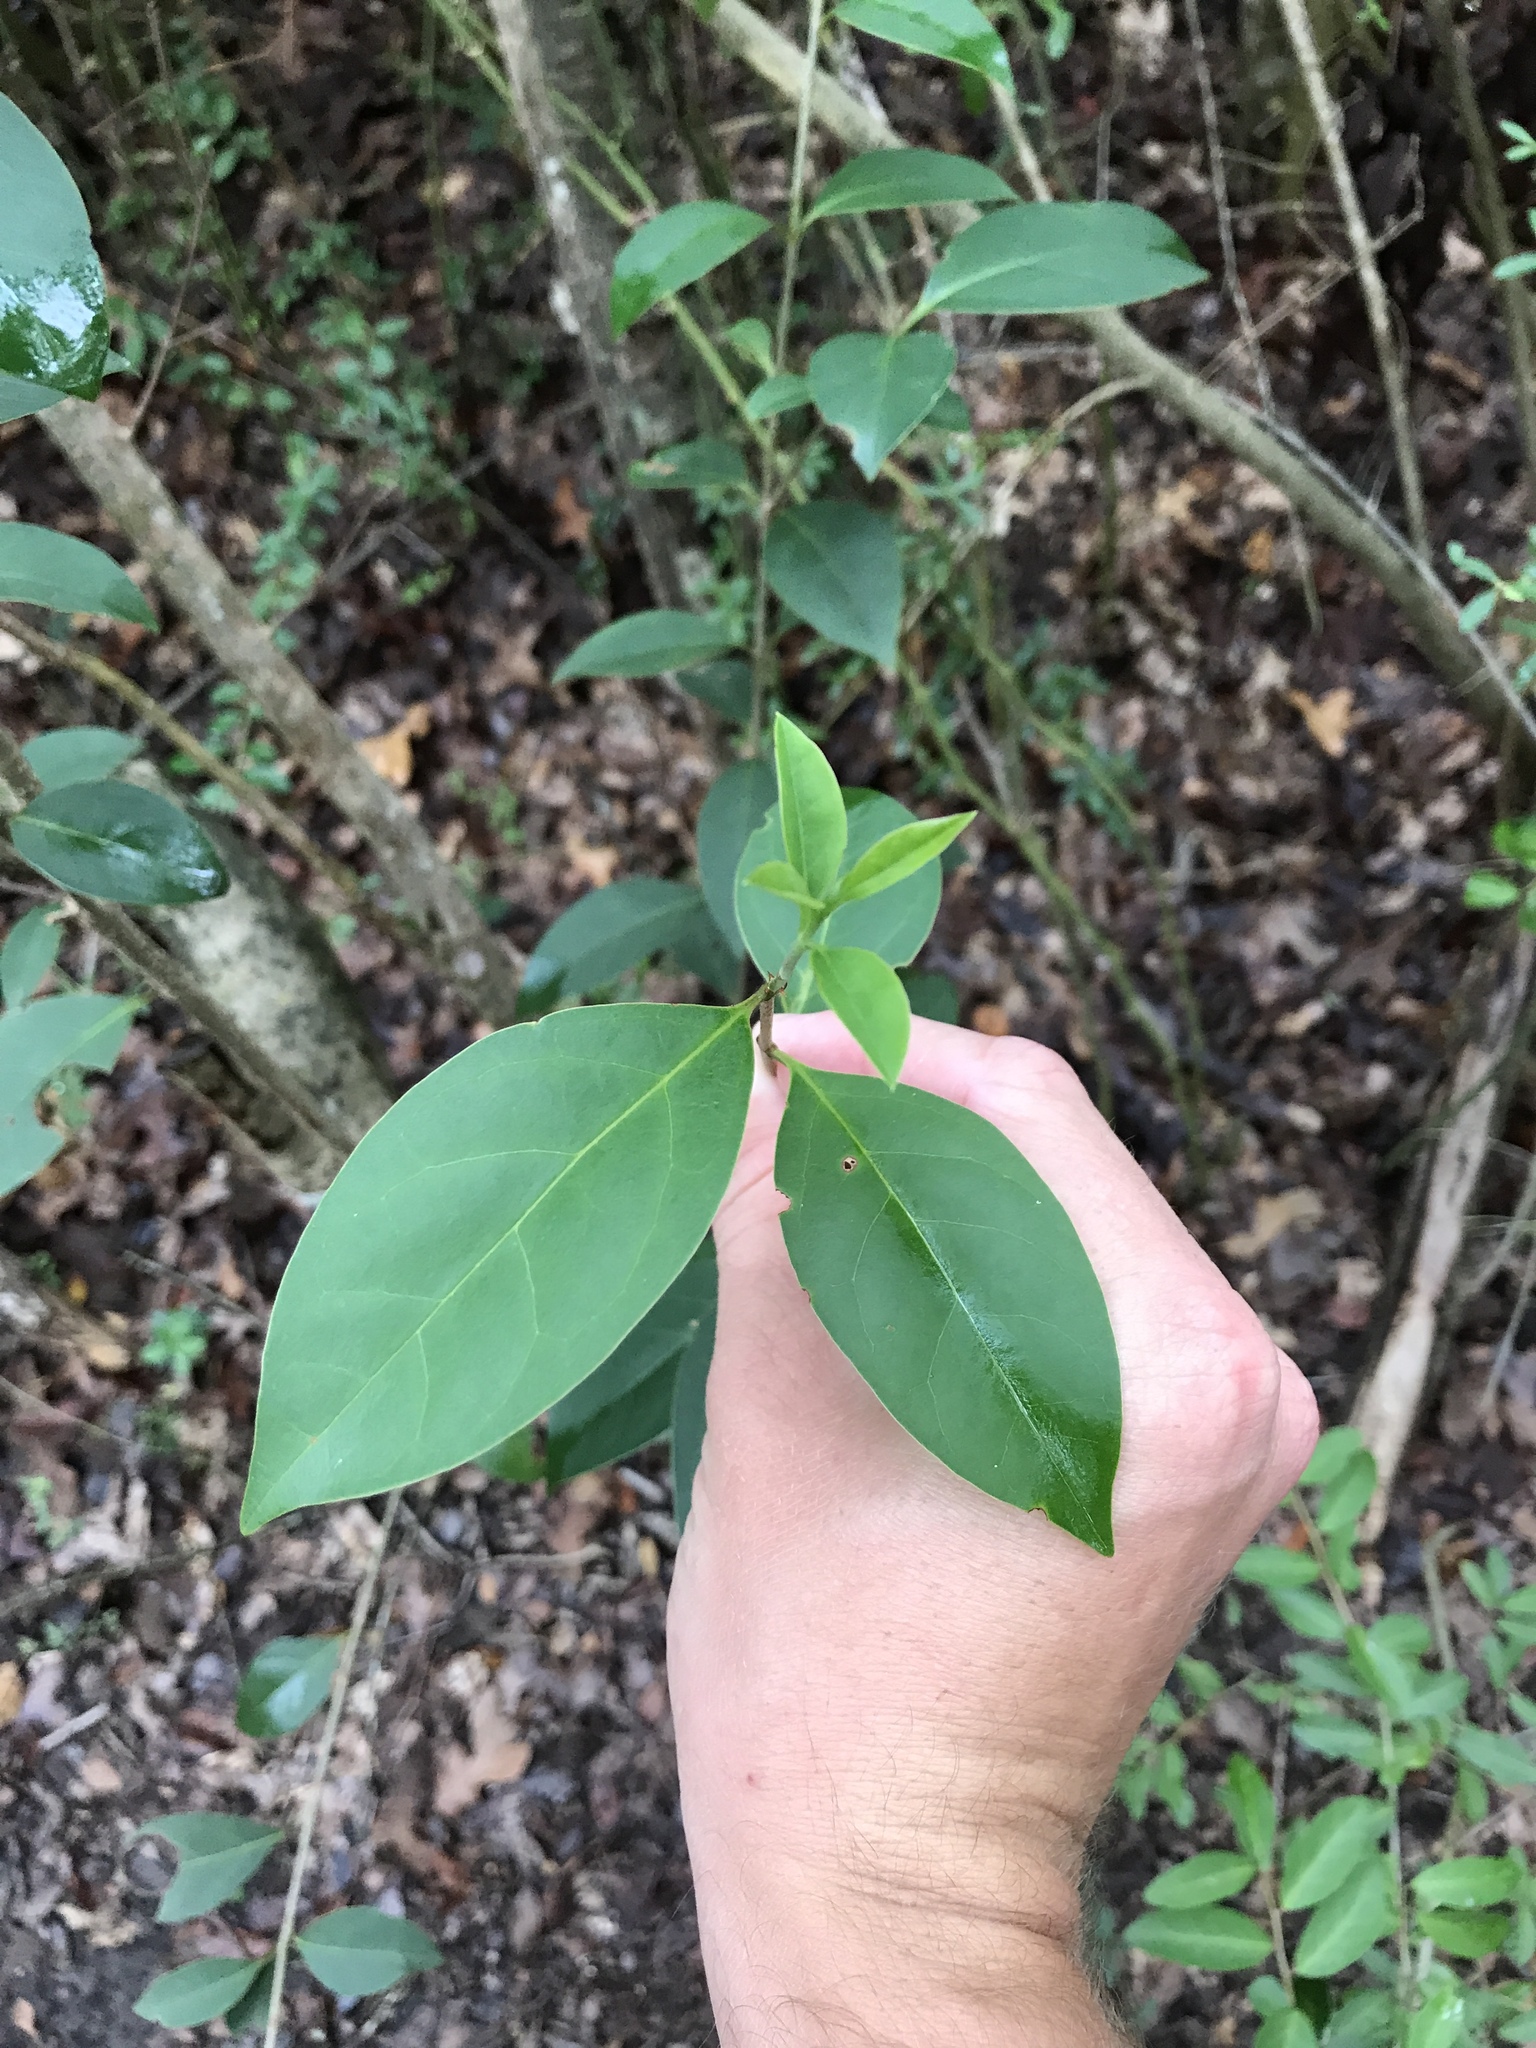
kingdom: Plantae
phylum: Tracheophyta
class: Magnoliopsida
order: Lamiales
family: Oleaceae
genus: Ligustrum
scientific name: Ligustrum lucidum
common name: Glossy privet
